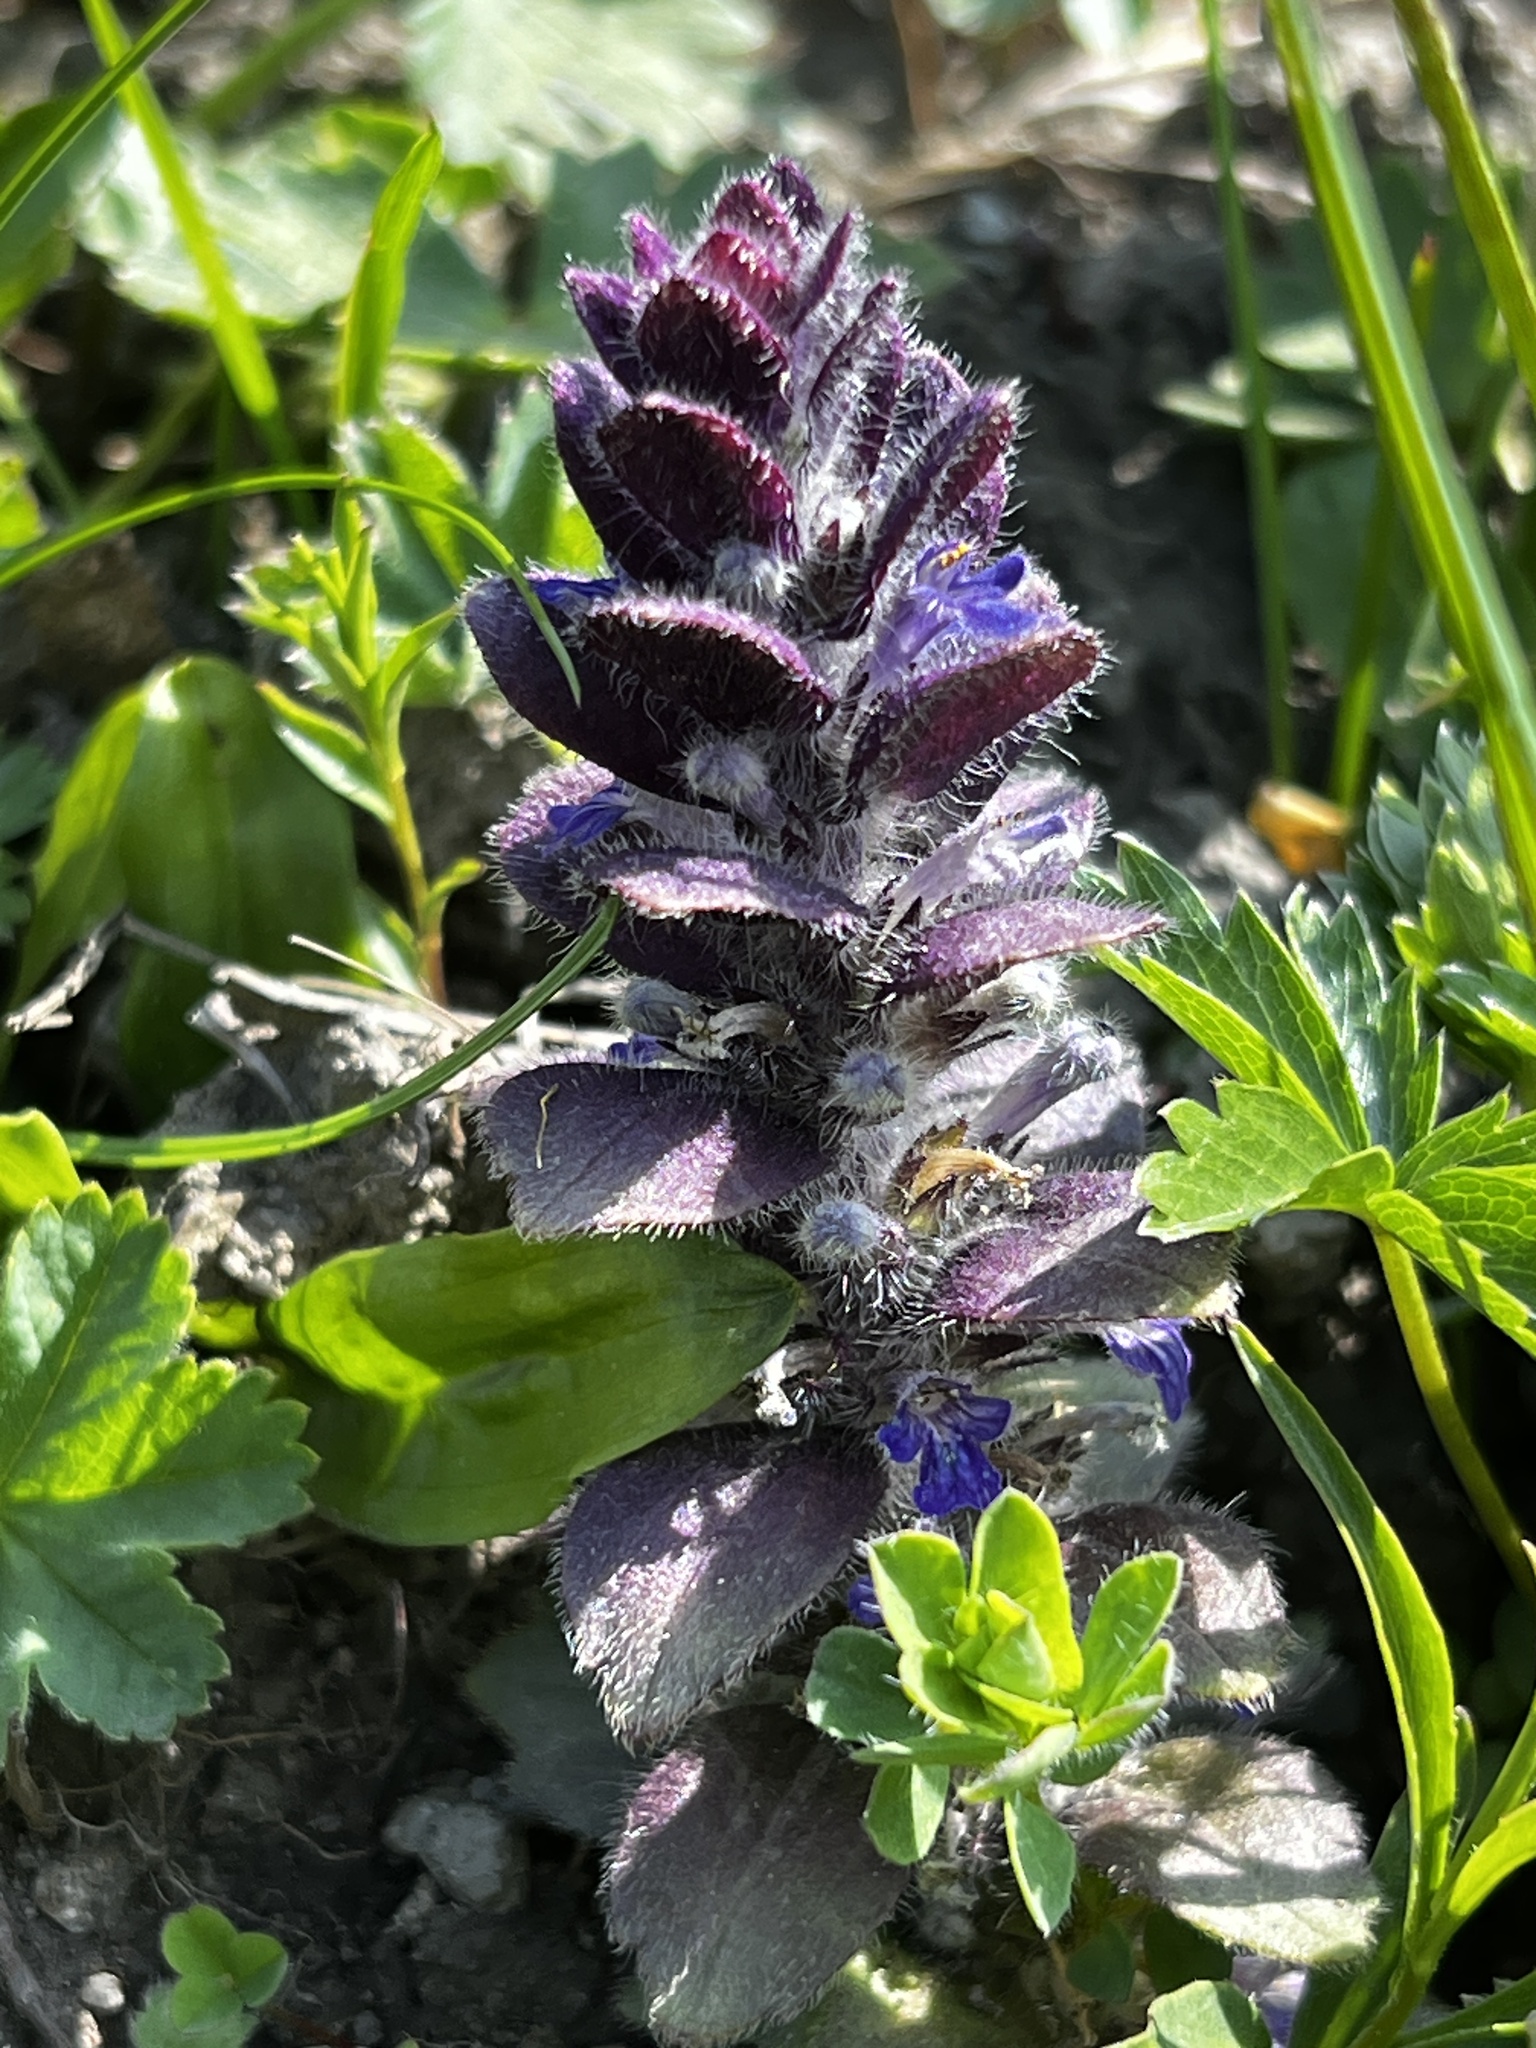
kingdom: Plantae
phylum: Tracheophyta
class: Magnoliopsida
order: Lamiales
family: Lamiaceae
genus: Ajuga
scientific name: Ajuga pyramidalis
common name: Pyramid bugle
